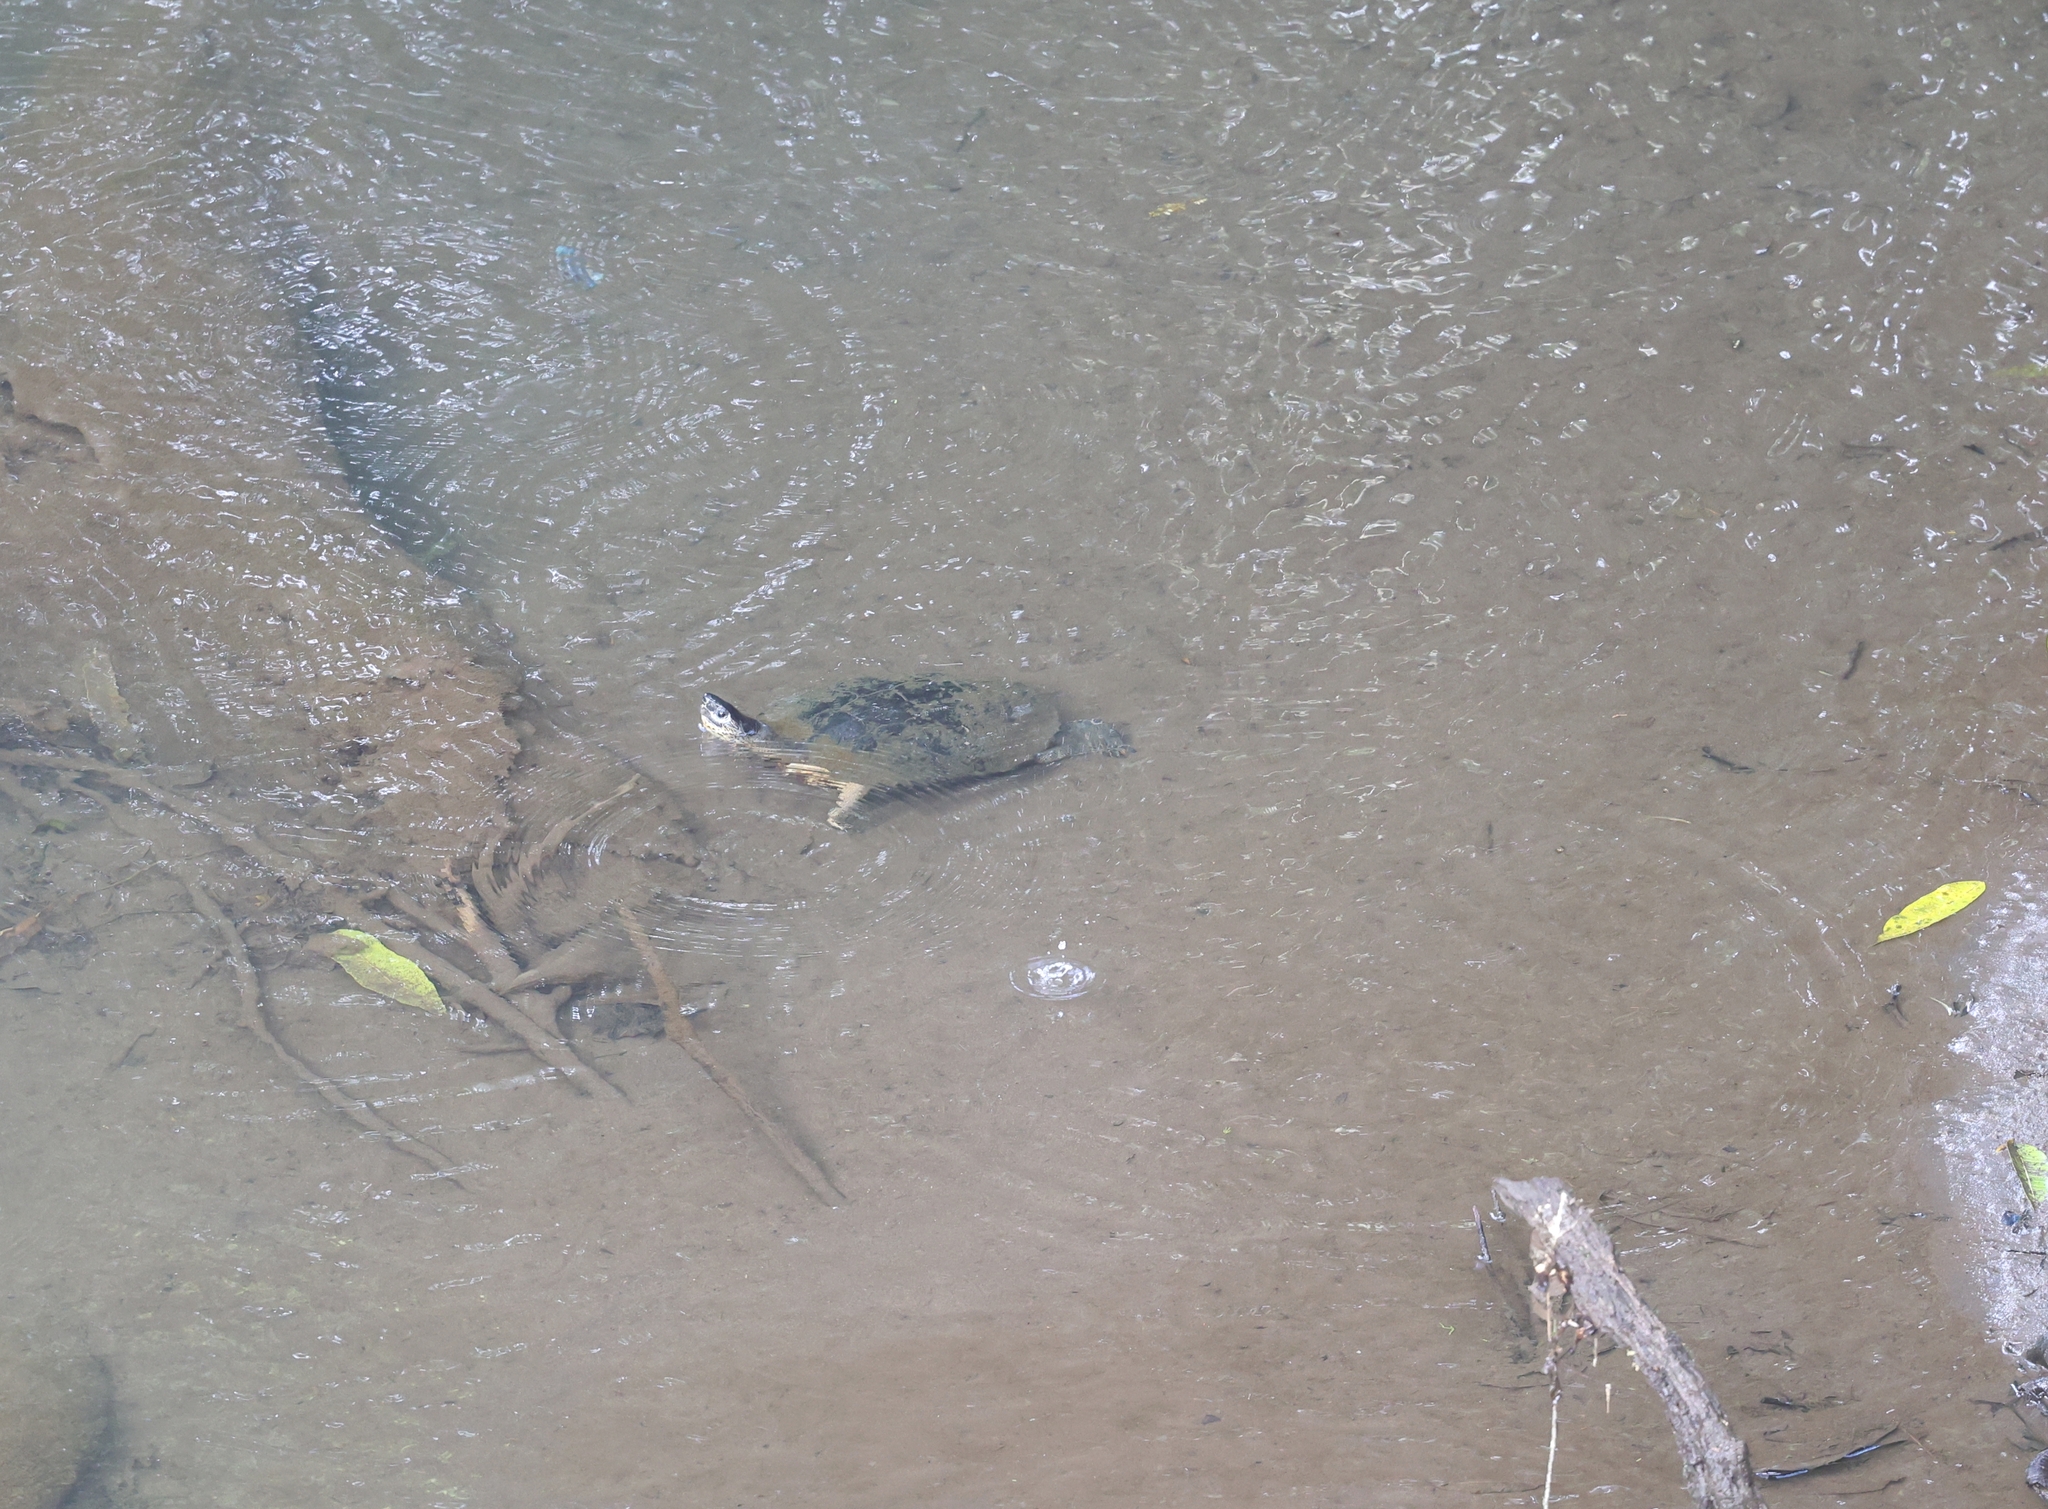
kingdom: Animalia
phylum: Chordata
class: Testudines
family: Geoemydidae
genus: Rhinoclemmys
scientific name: Rhinoclemmys funerea
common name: Black wood turtle
